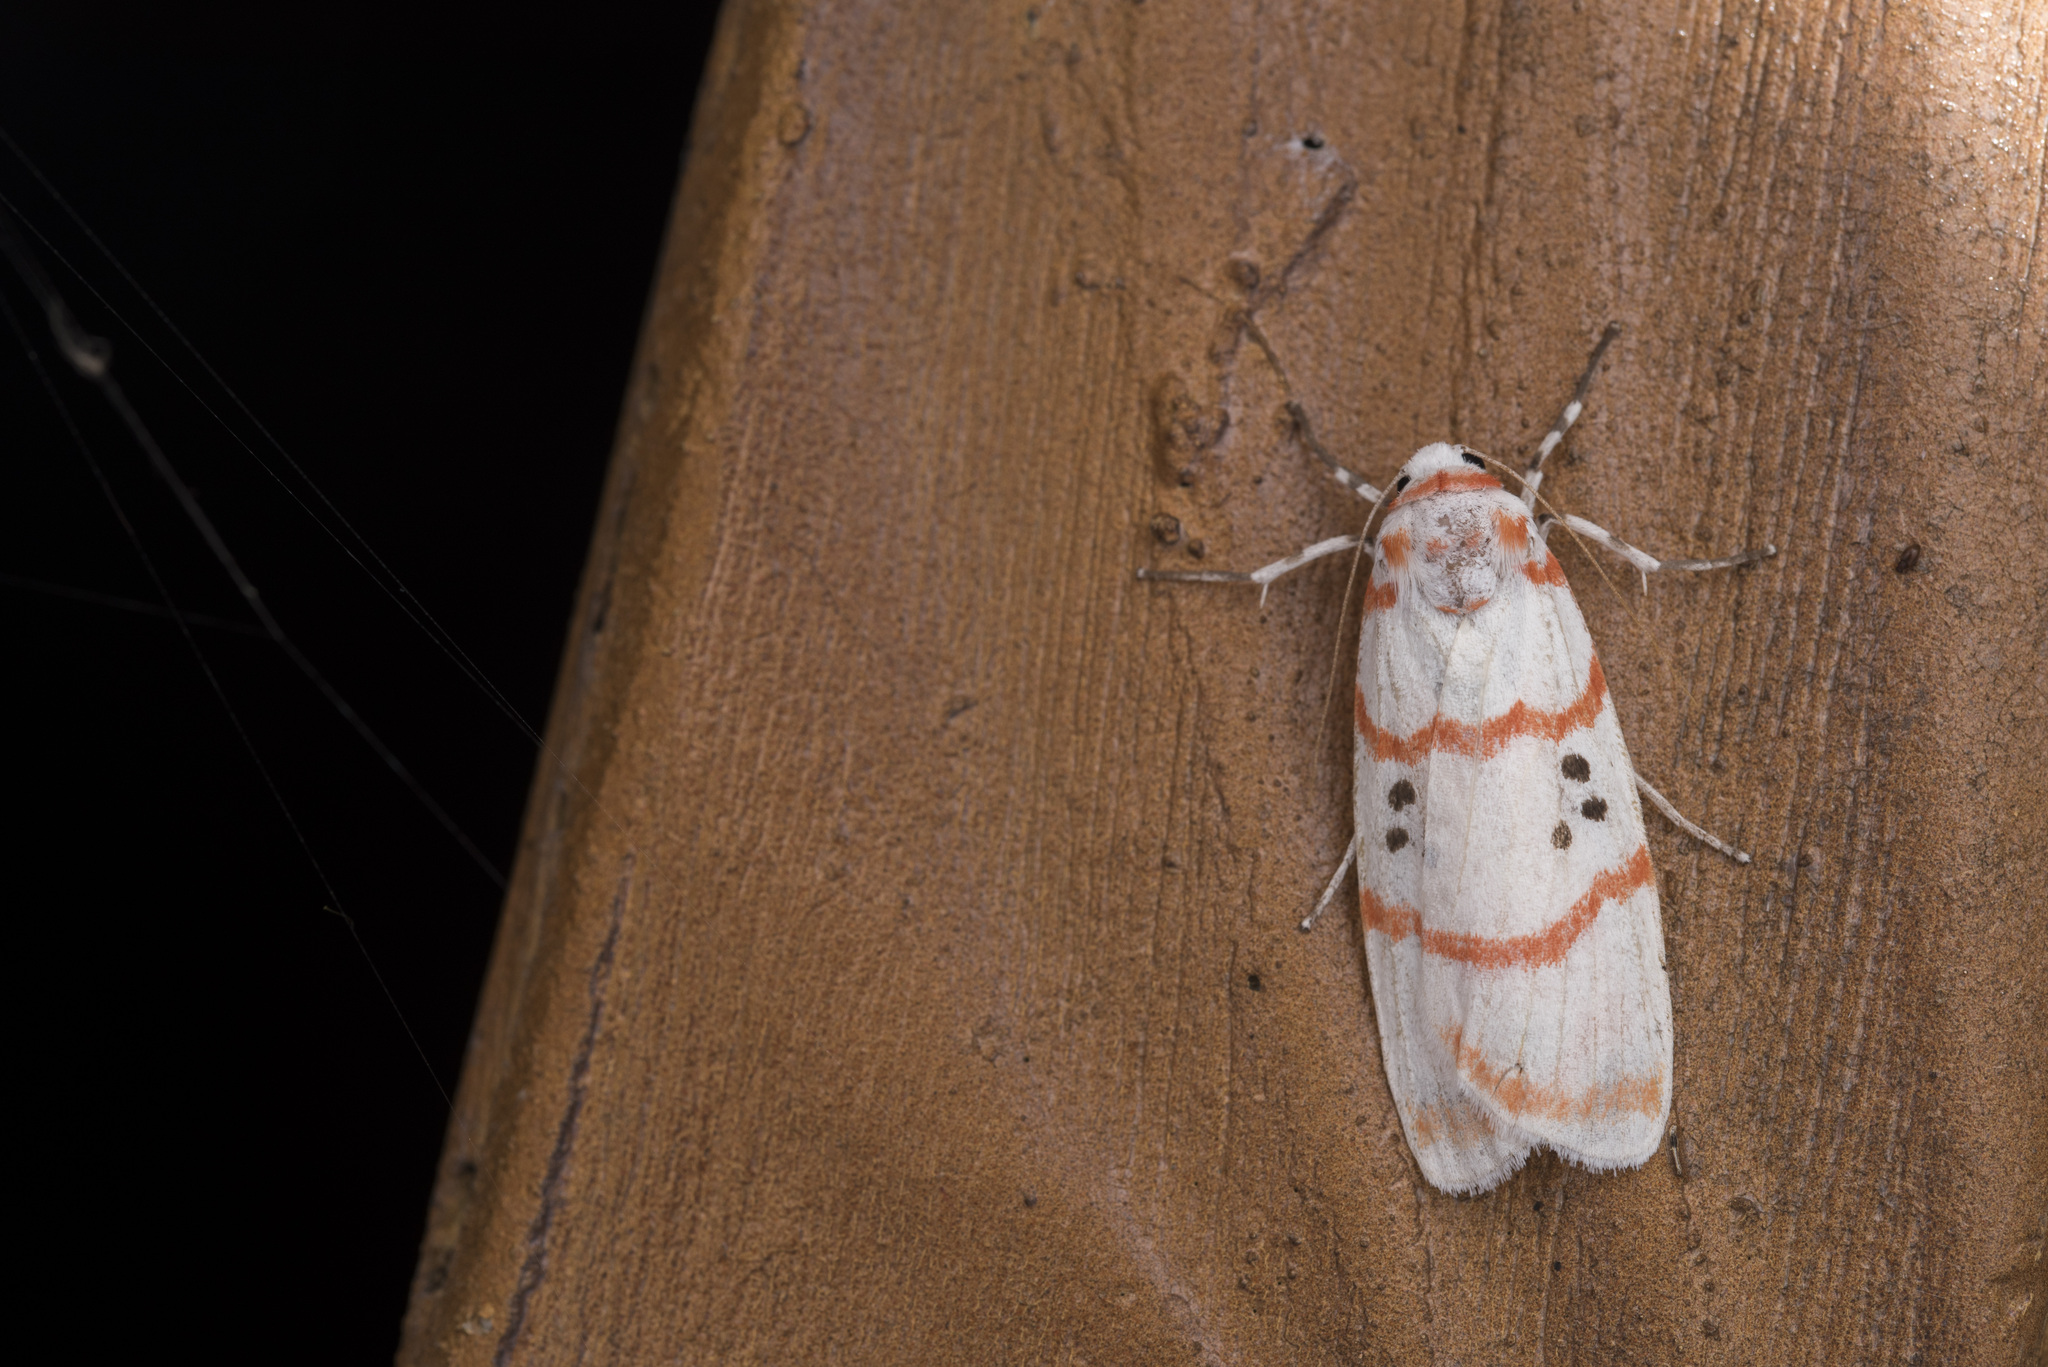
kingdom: Animalia
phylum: Arthropoda
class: Insecta
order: Lepidoptera
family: Erebidae
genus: Cyana
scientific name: Cyana subalba
